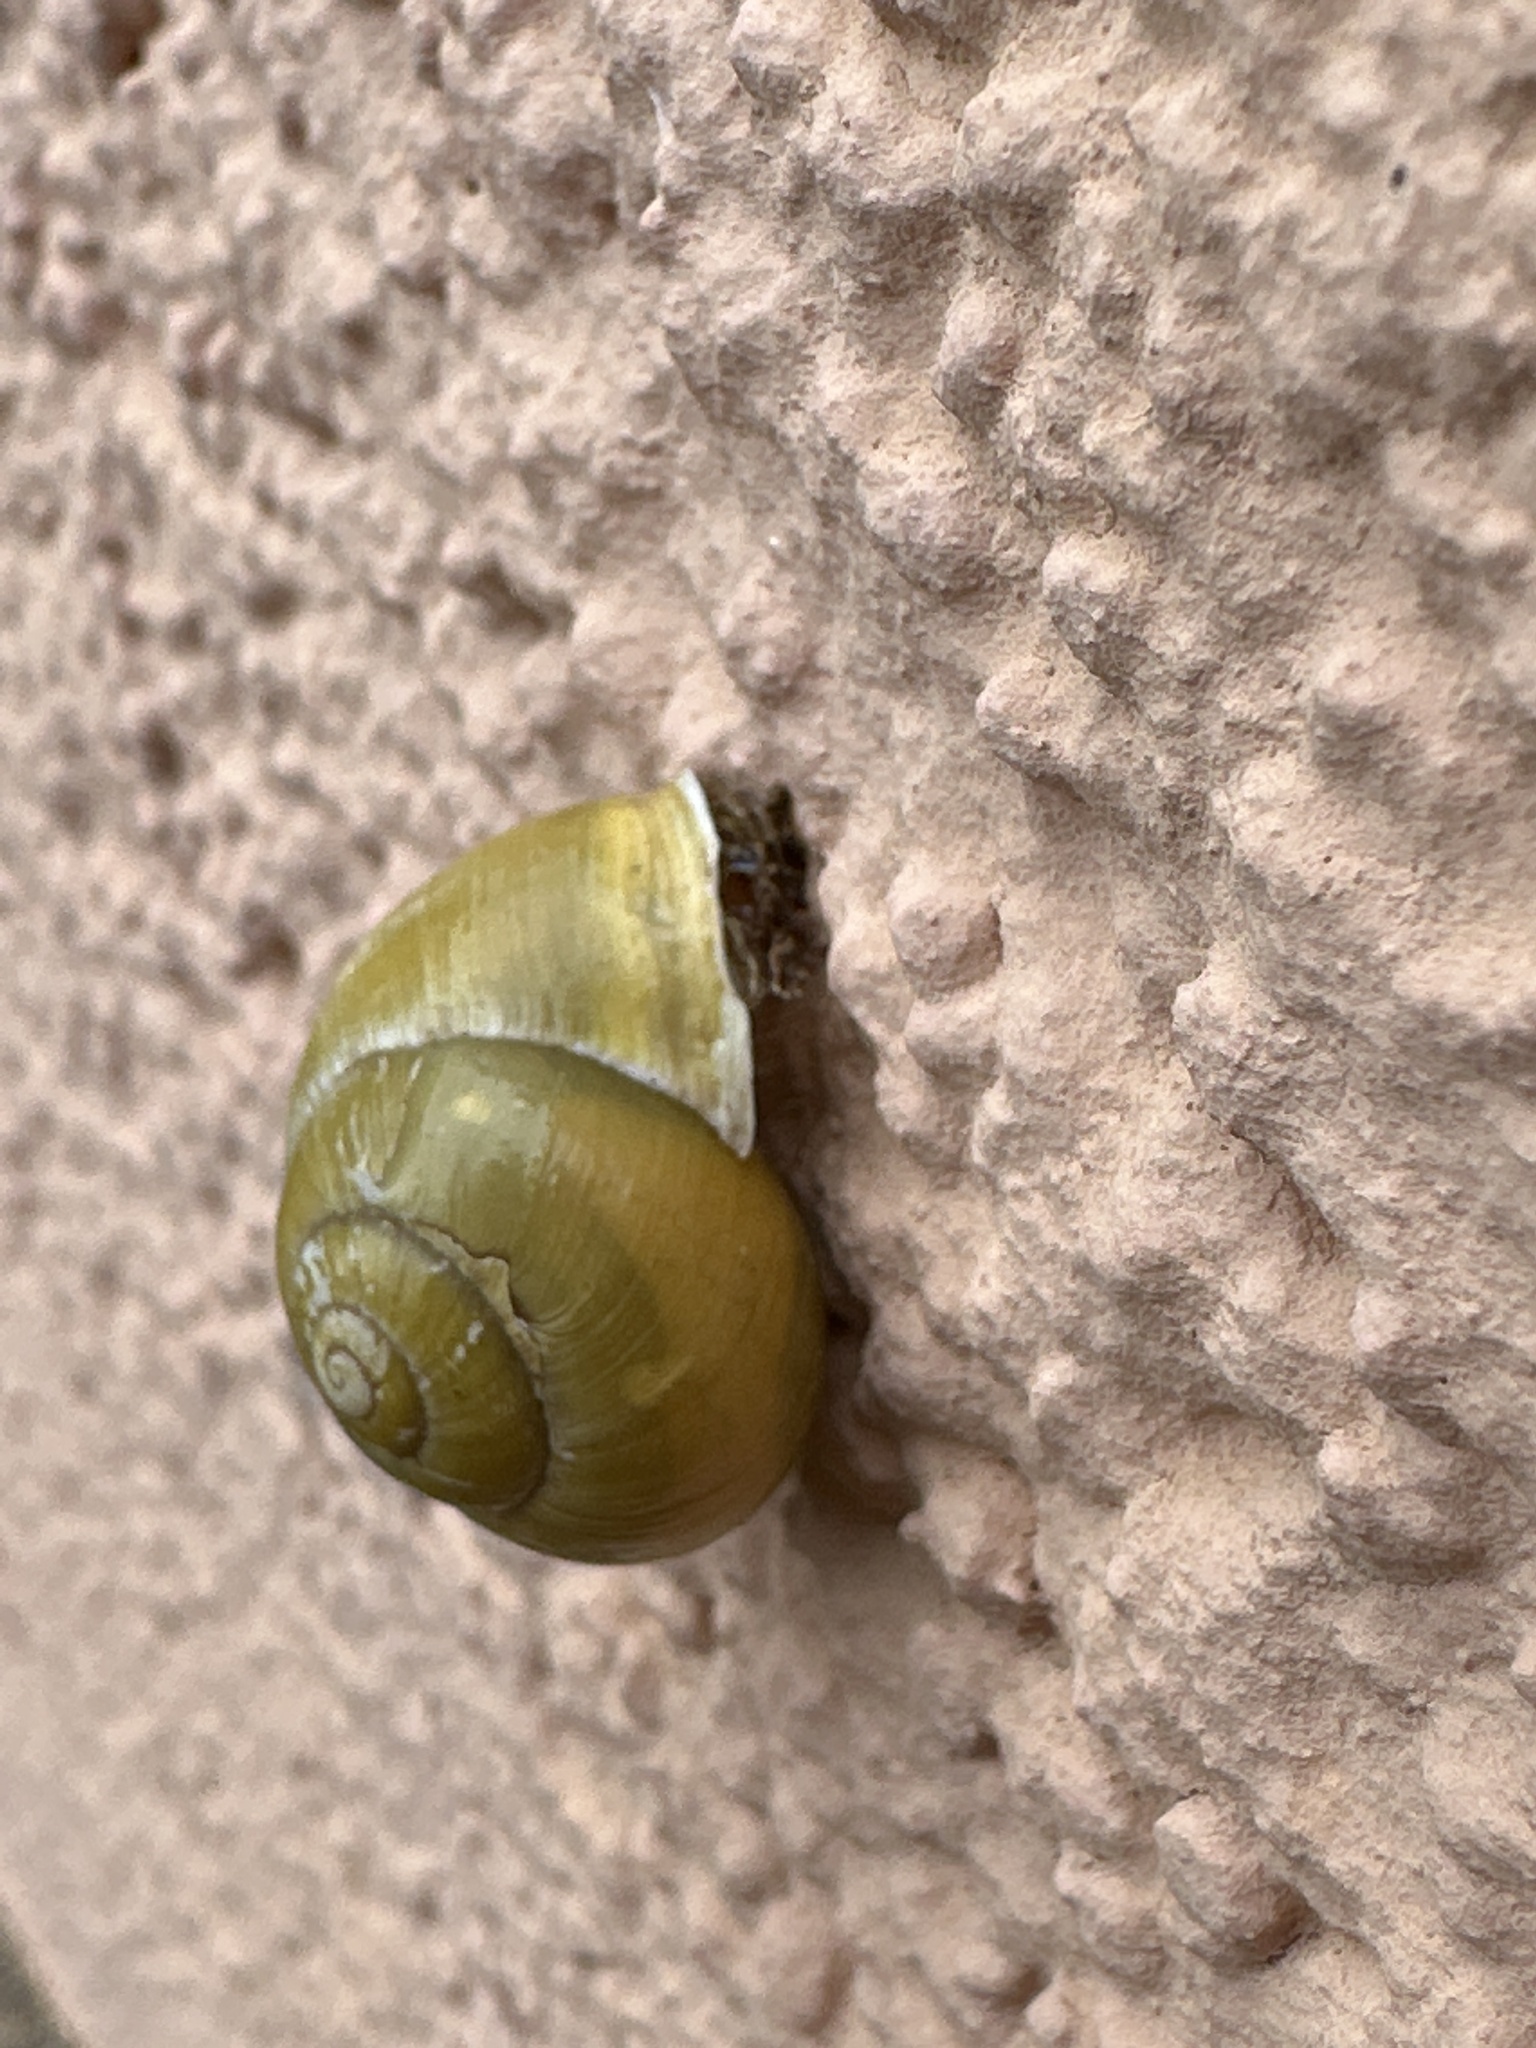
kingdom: Animalia
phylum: Mollusca
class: Gastropoda
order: Stylommatophora
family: Helicidae
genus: Cepaea
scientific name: Cepaea hortensis
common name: White-lip gardensnail
